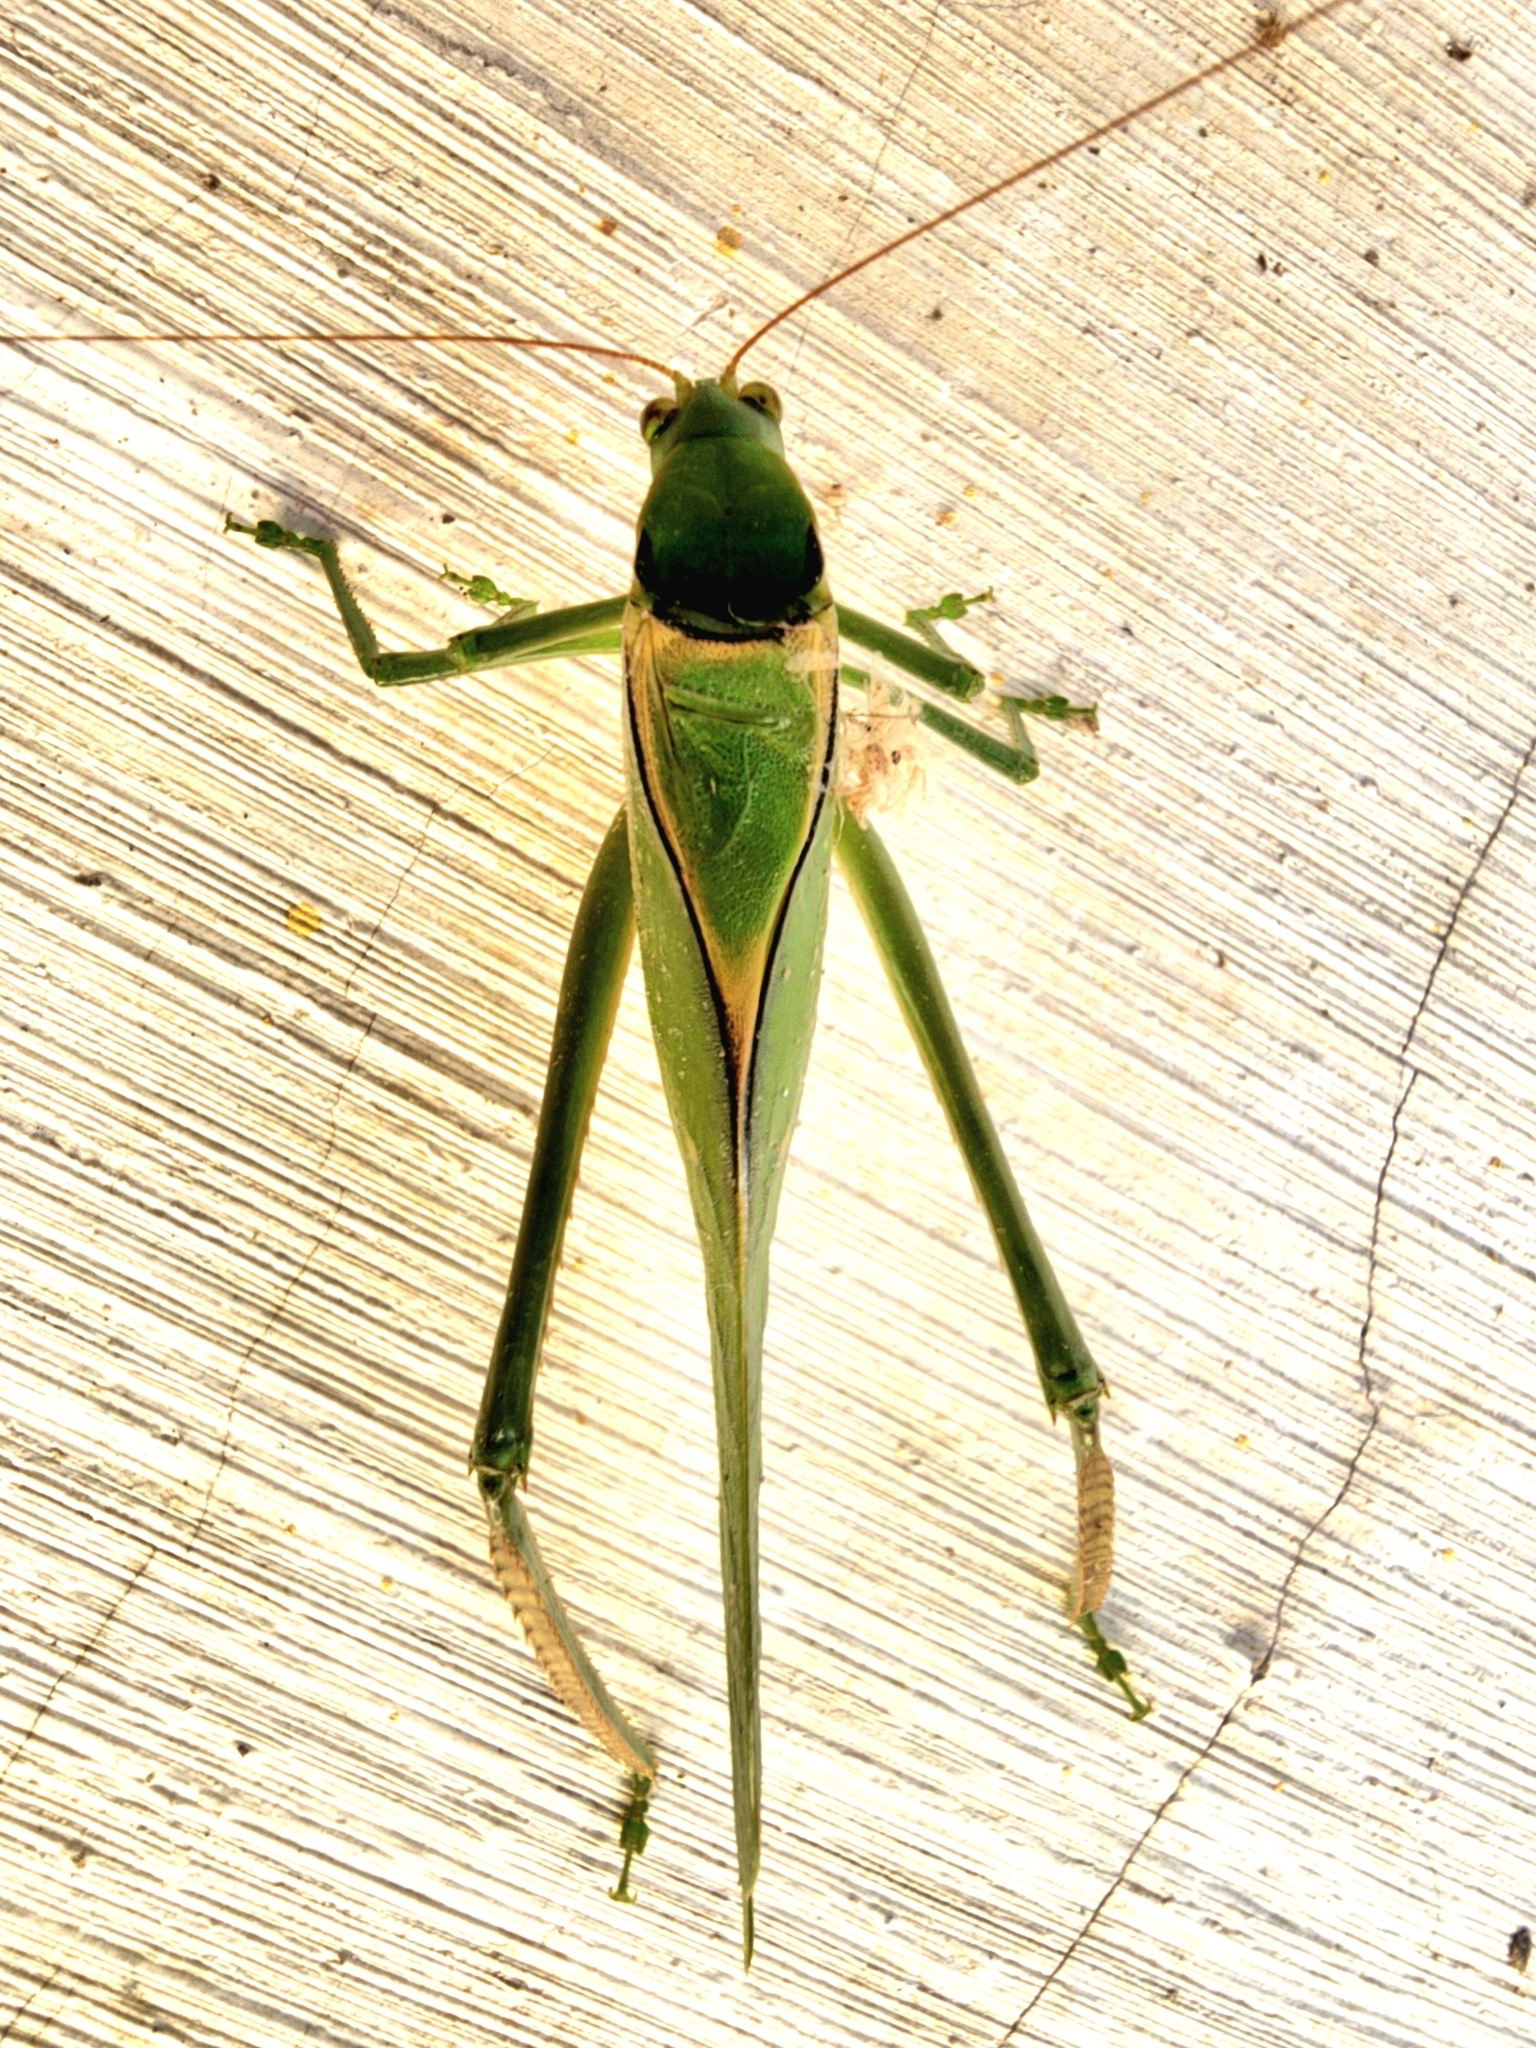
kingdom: Animalia
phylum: Arthropoda
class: Insecta
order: Orthoptera
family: Tettigoniidae
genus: Stilpnochlora
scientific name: Stilpnochlora azteca
